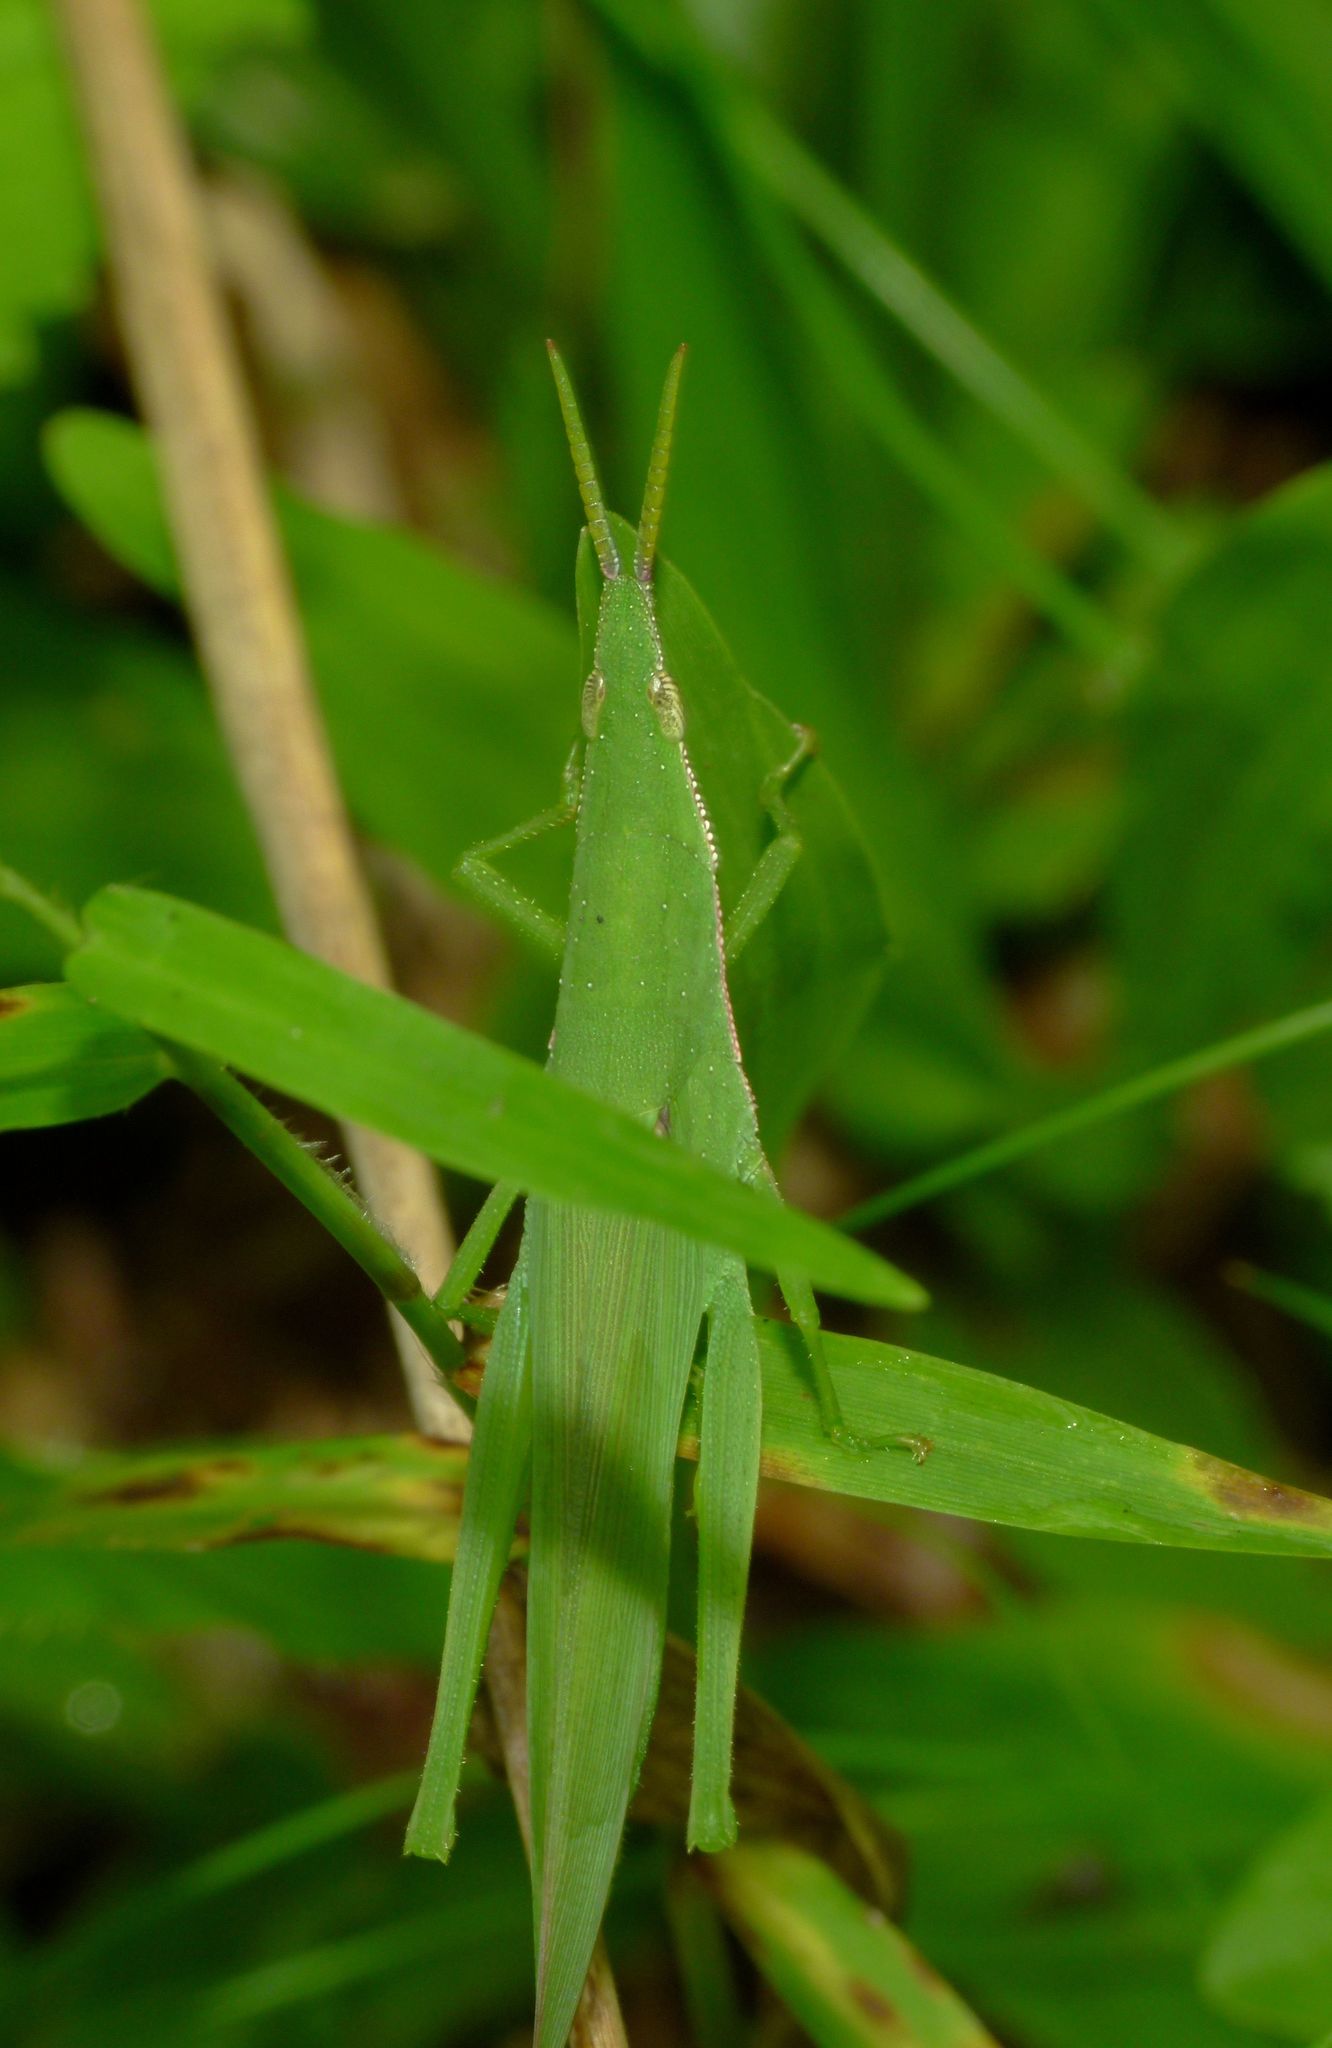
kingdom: Animalia
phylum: Arthropoda
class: Insecta
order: Orthoptera
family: Pyrgomorphidae
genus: Atractomorpha
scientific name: Atractomorpha similis
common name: Northern grass pyrgomorph
